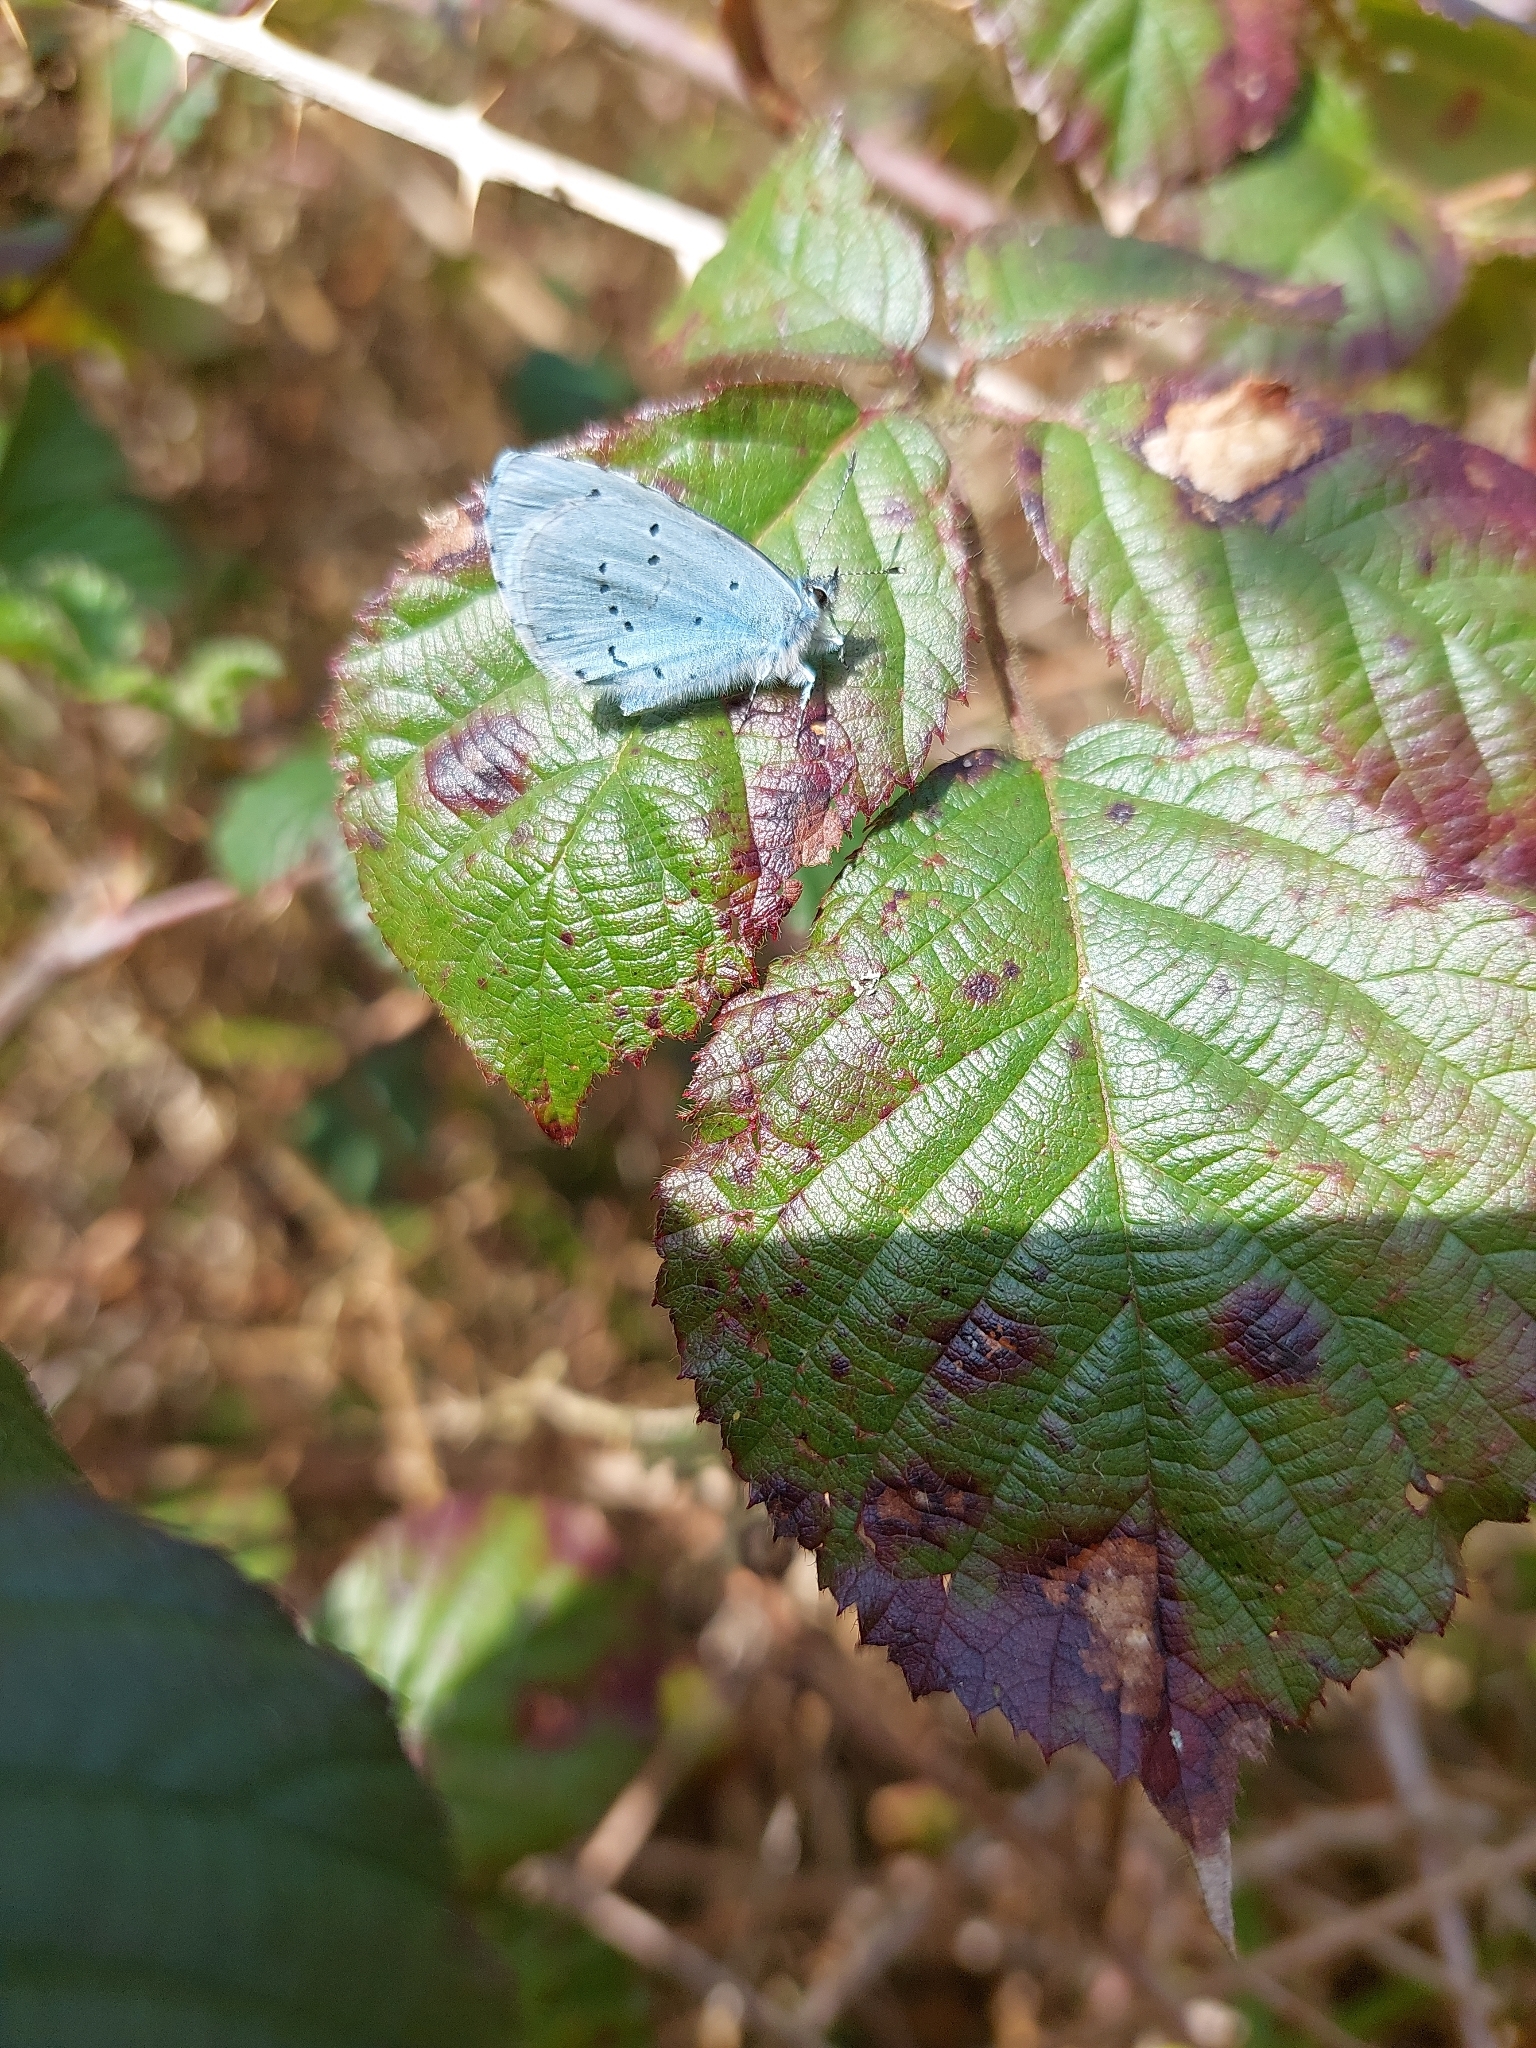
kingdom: Animalia
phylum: Arthropoda
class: Insecta
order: Lepidoptera
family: Lycaenidae
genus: Celastrina
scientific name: Celastrina argiolus
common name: Holly blue
